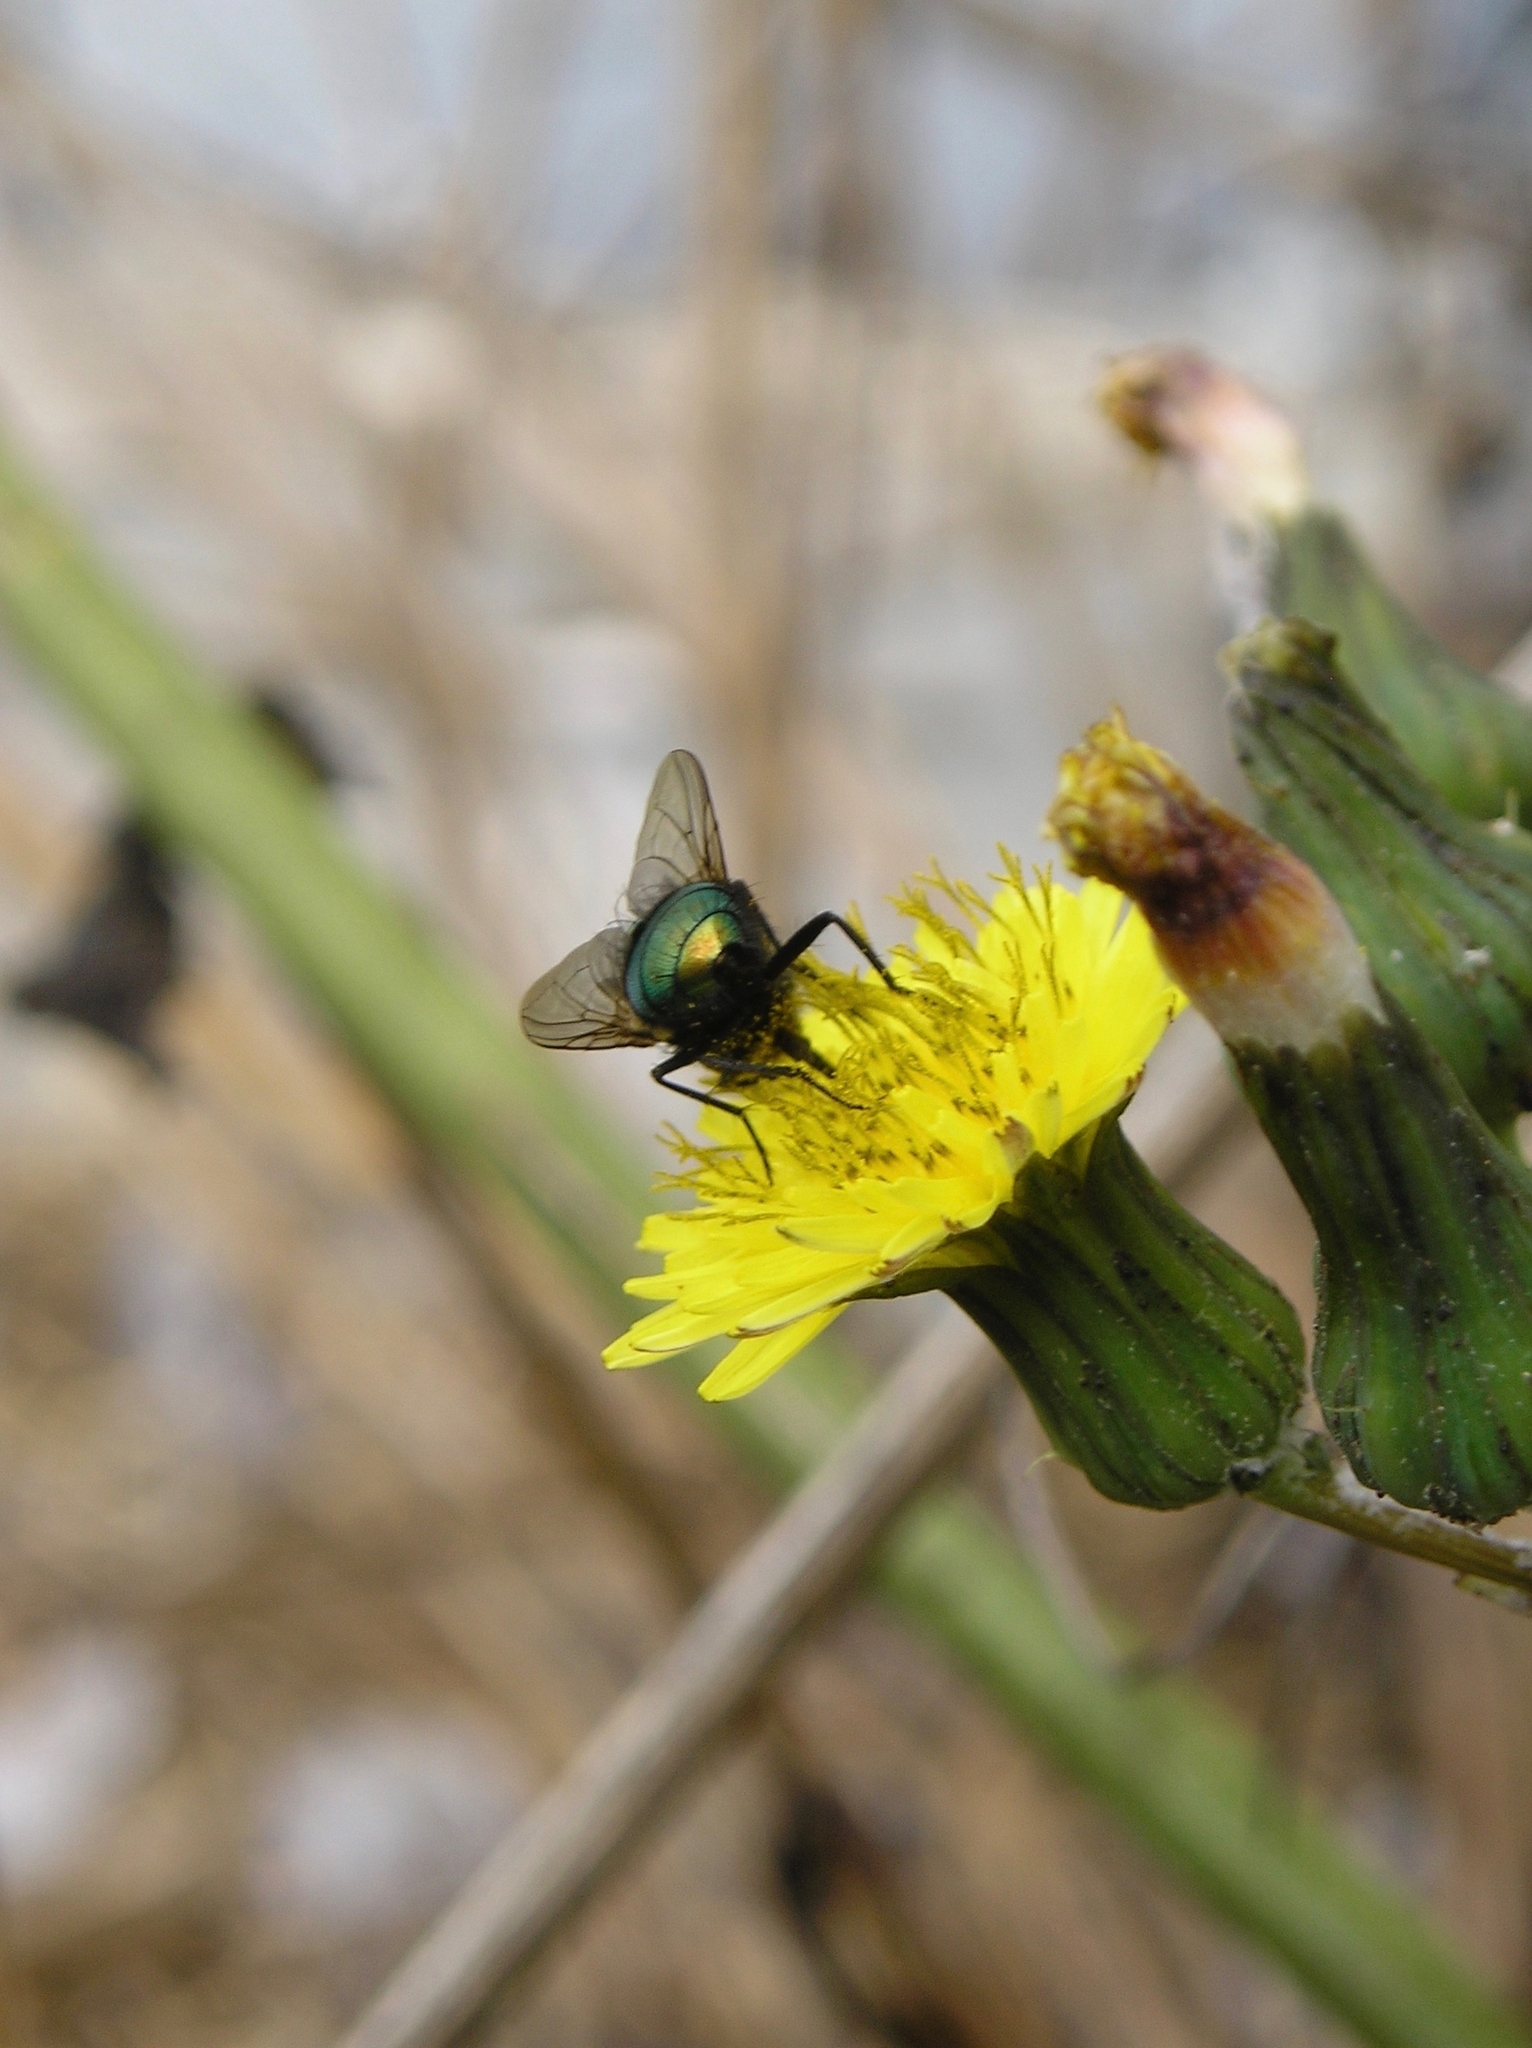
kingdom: Animalia
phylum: Arthropoda
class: Insecta
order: Diptera
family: Calliphoridae
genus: Lucilia
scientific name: Lucilia sericata
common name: Blow fly
